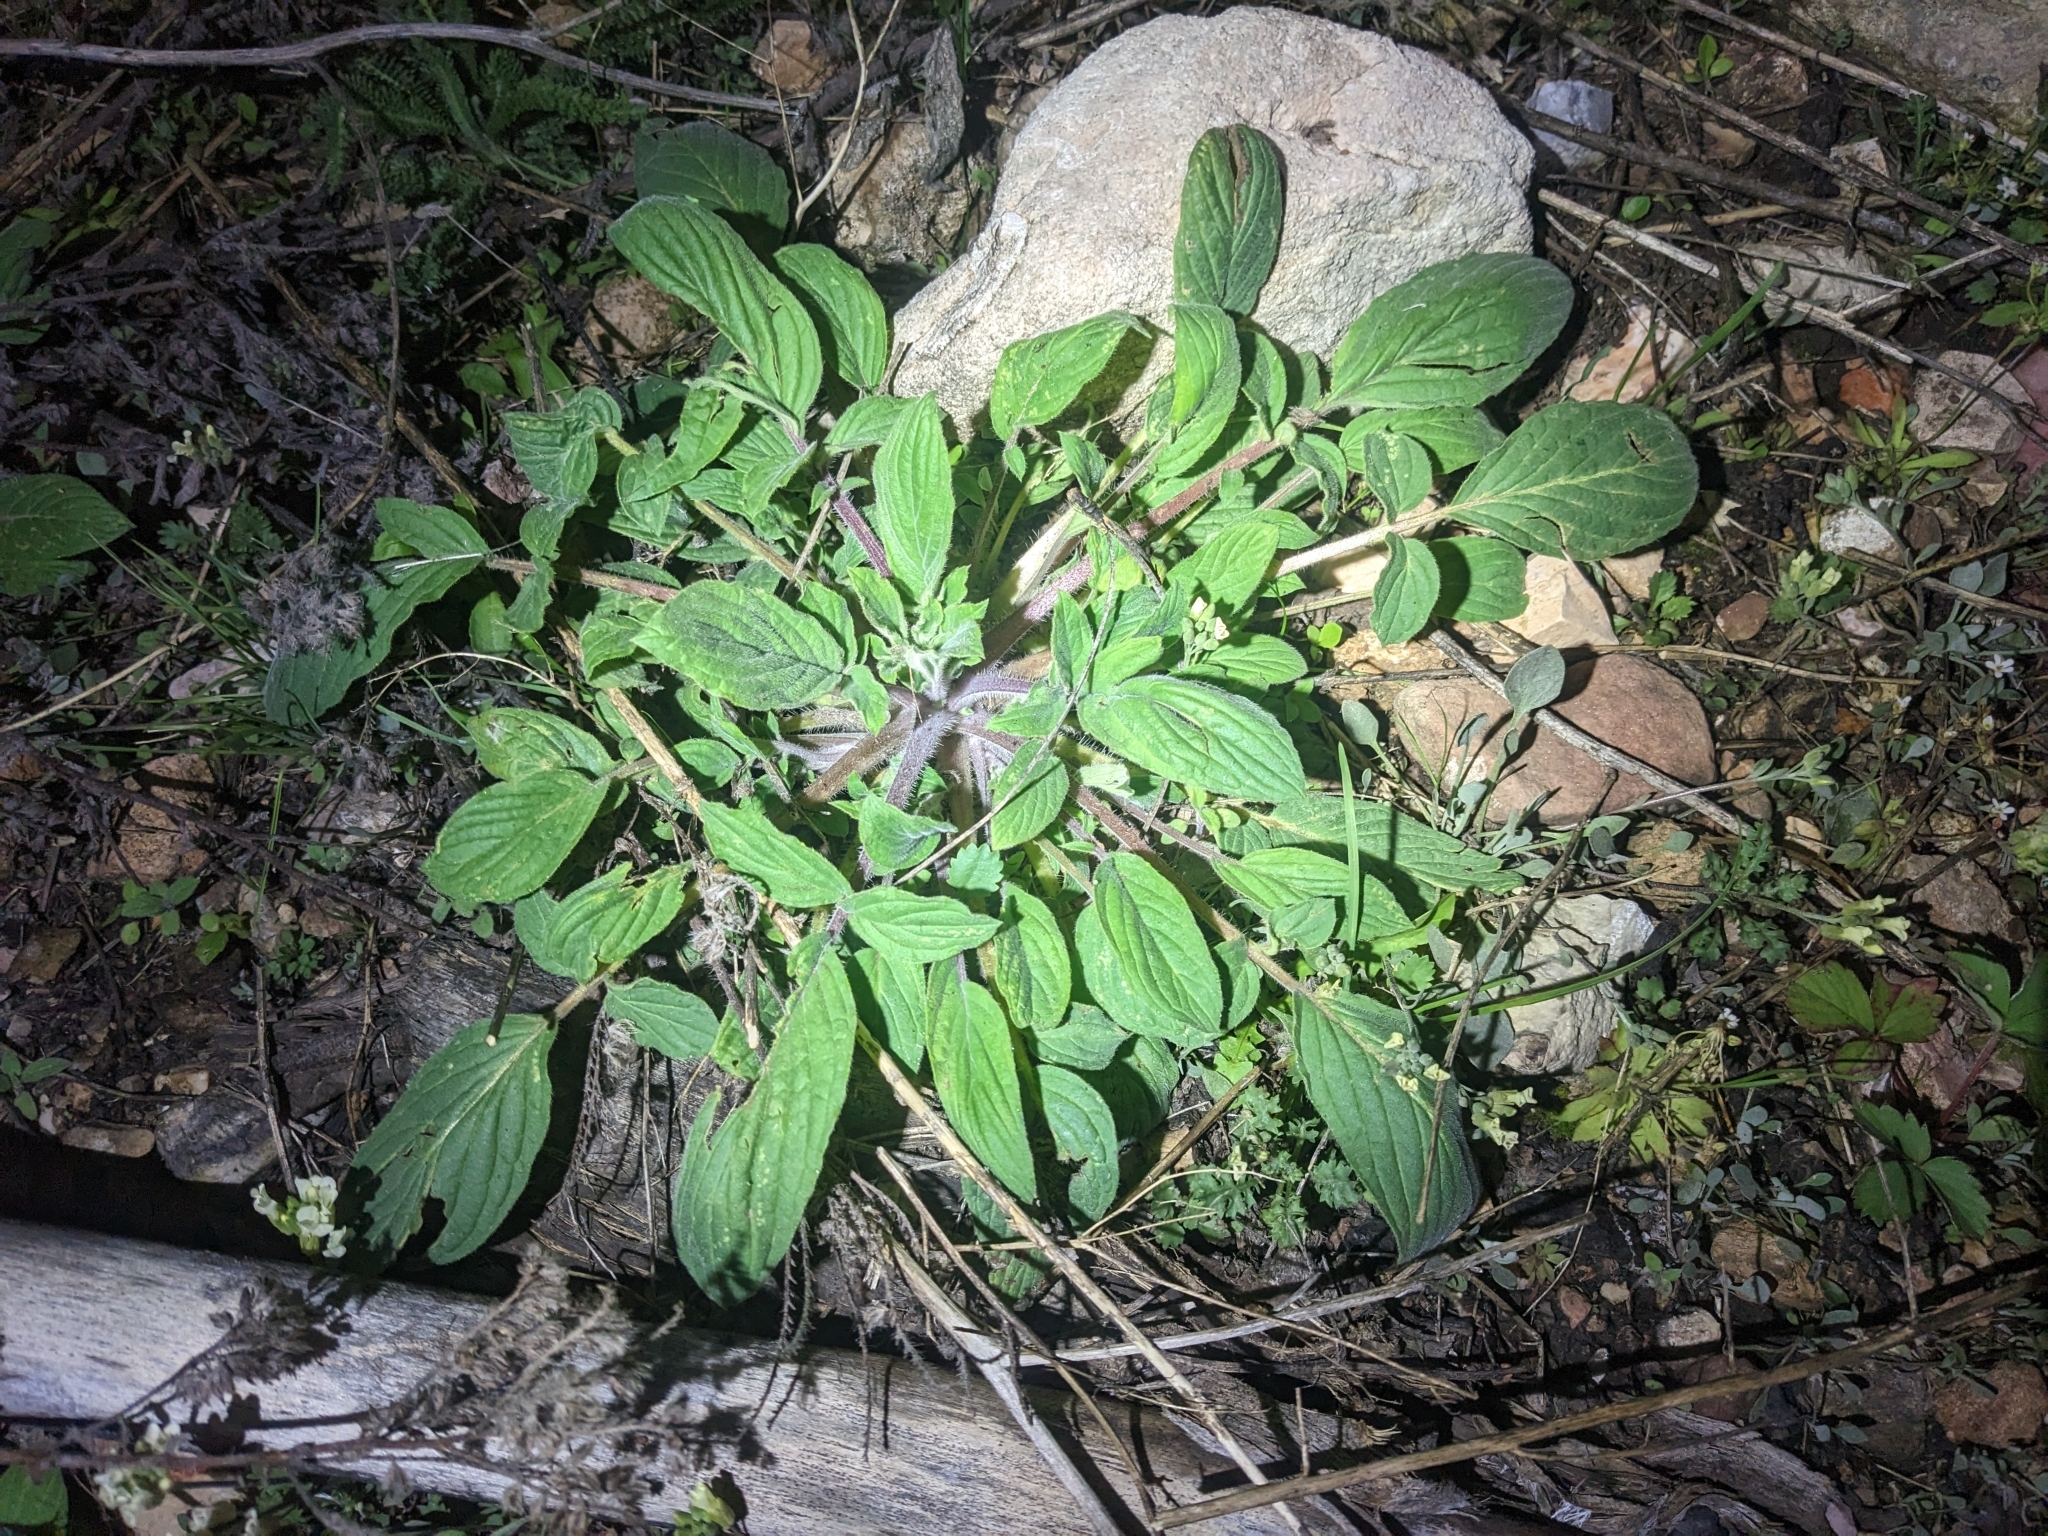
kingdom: Plantae
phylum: Tracheophyta
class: Magnoliopsida
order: Boraginales
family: Hydrophyllaceae
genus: Phacelia
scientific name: Phacelia heterophylla
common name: Variable-leaved phacelia
